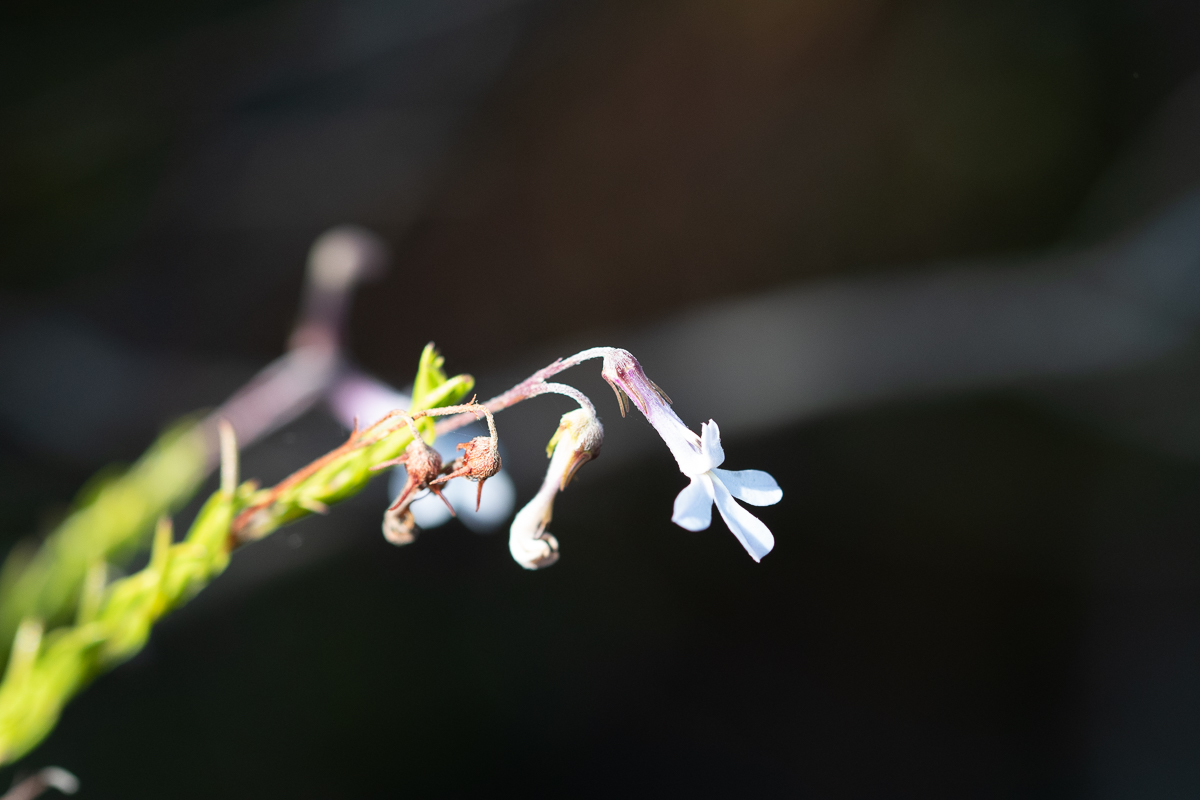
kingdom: Plantae
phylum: Tracheophyta
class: Magnoliopsida
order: Asterales
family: Campanulaceae
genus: Lobelia
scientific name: Lobelia pinifolia
